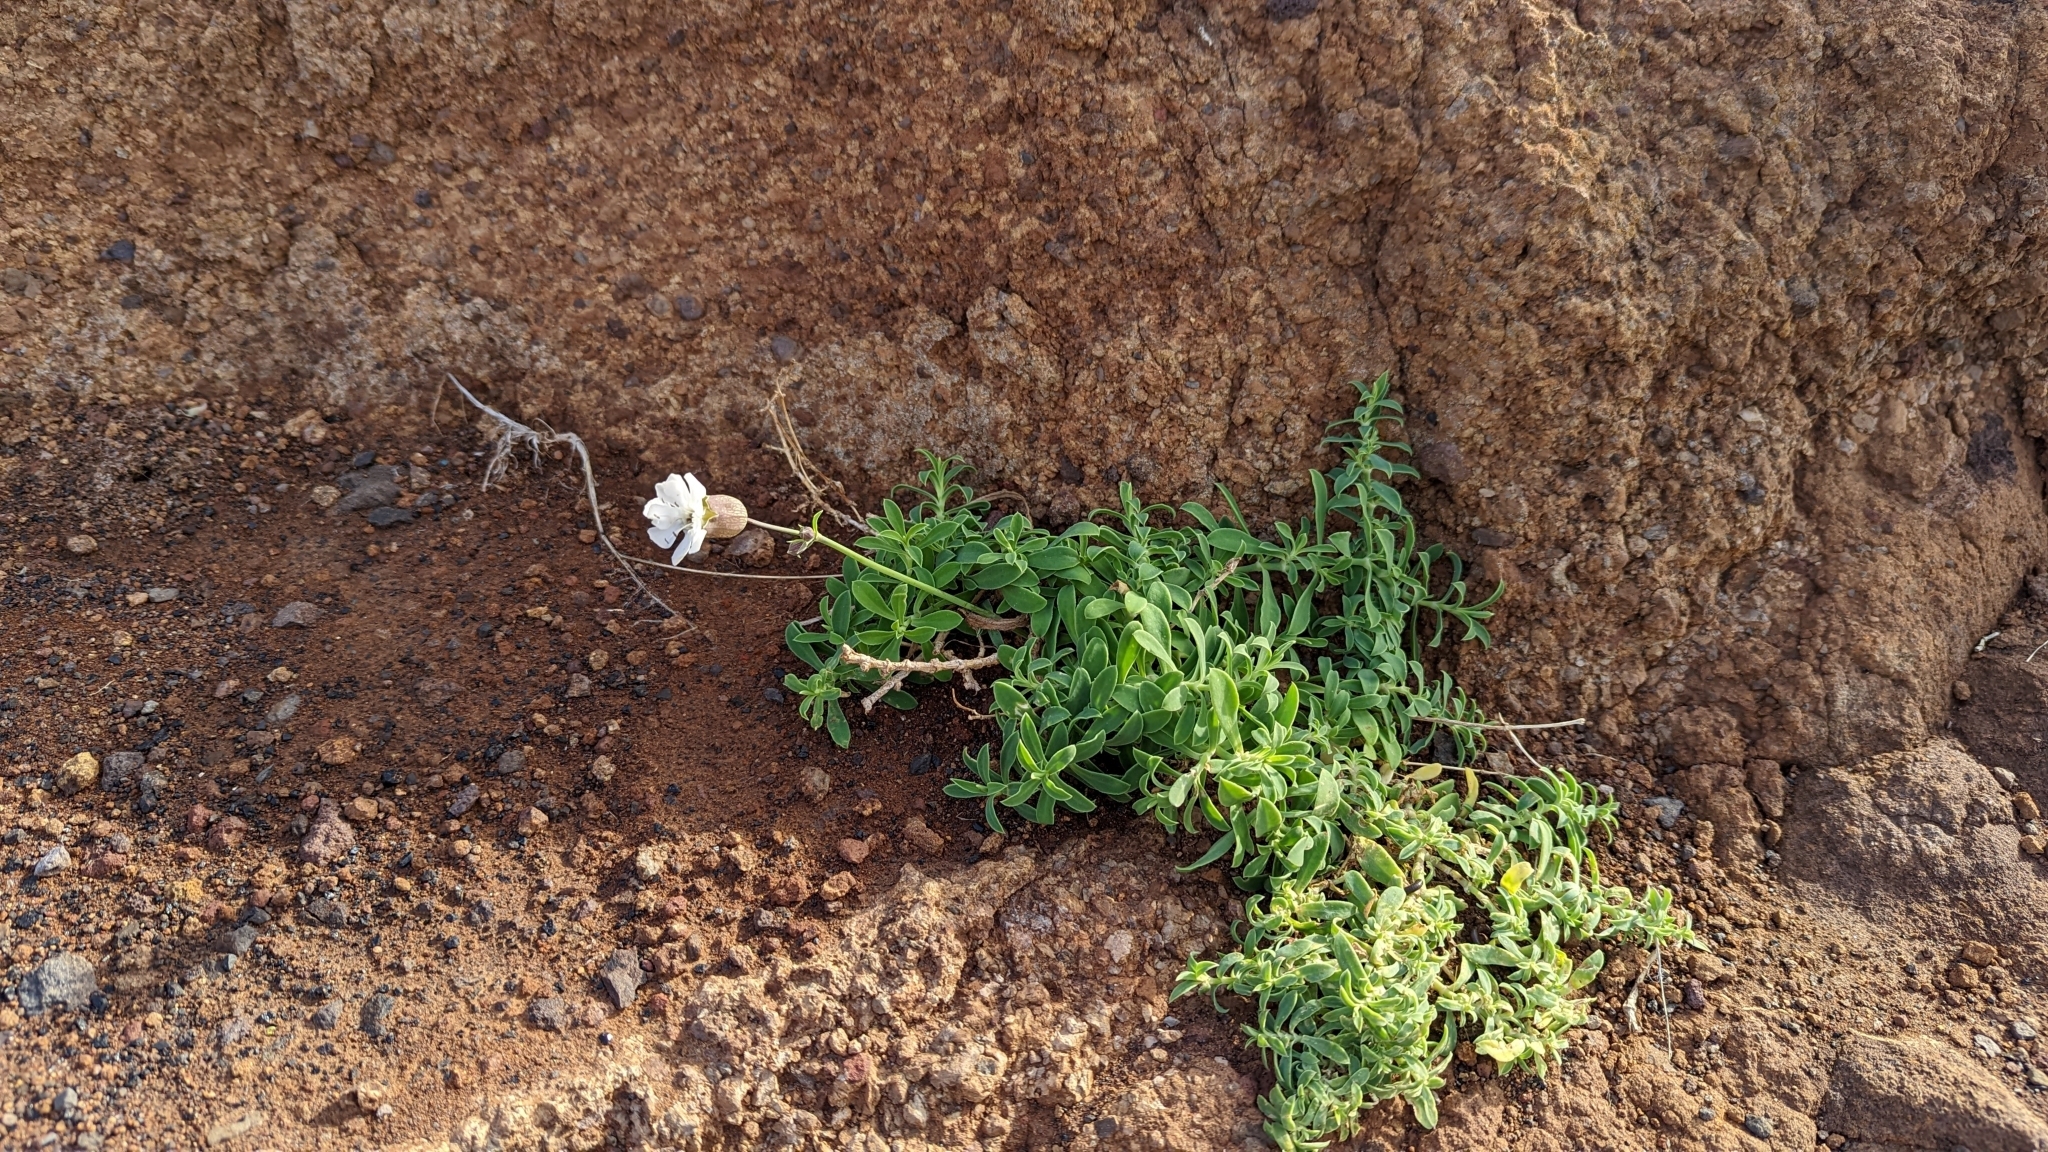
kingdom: Plantae
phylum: Tracheophyta
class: Magnoliopsida
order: Caryophyllales
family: Caryophyllaceae
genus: Silene
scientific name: Silene uniflora
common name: Sea campion
